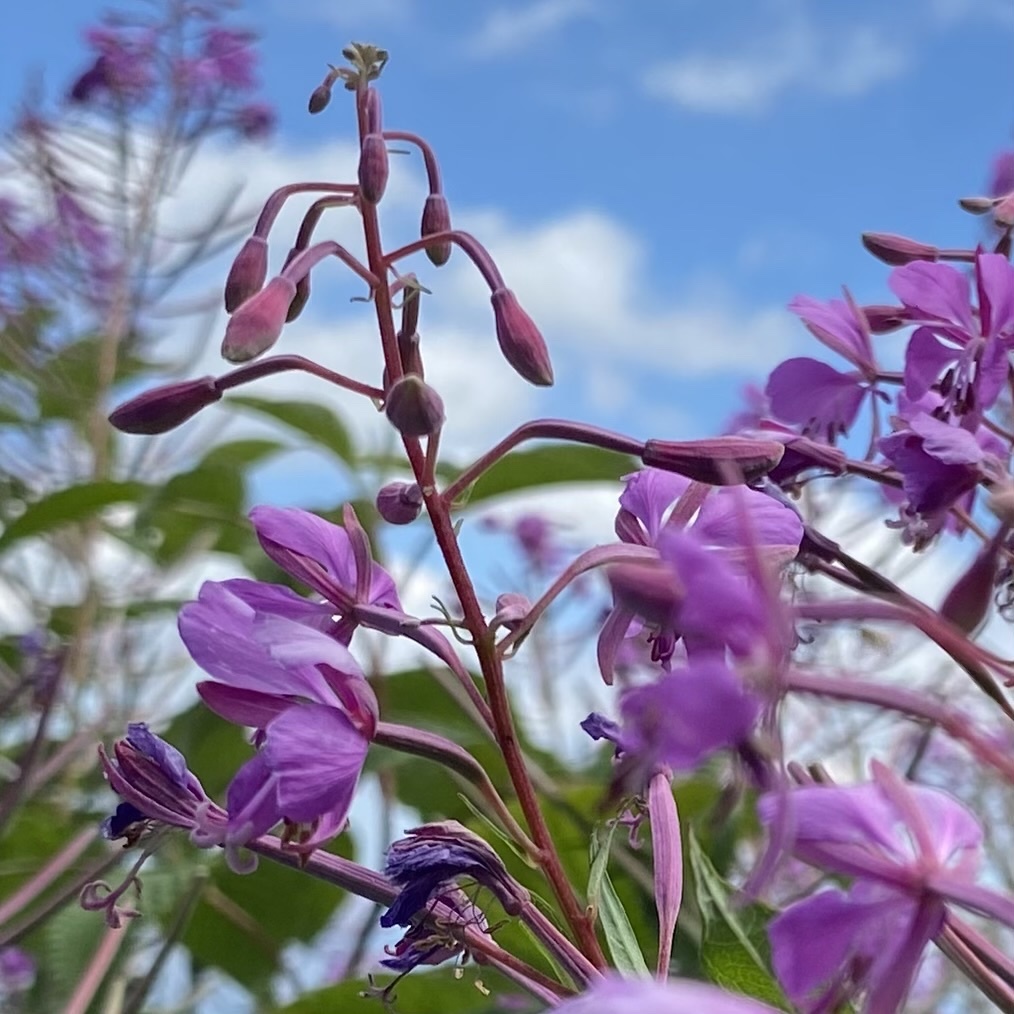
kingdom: Plantae
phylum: Tracheophyta
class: Magnoliopsida
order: Myrtales
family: Onagraceae
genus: Chamaenerion
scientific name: Chamaenerion angustifolium
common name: Fireweed
